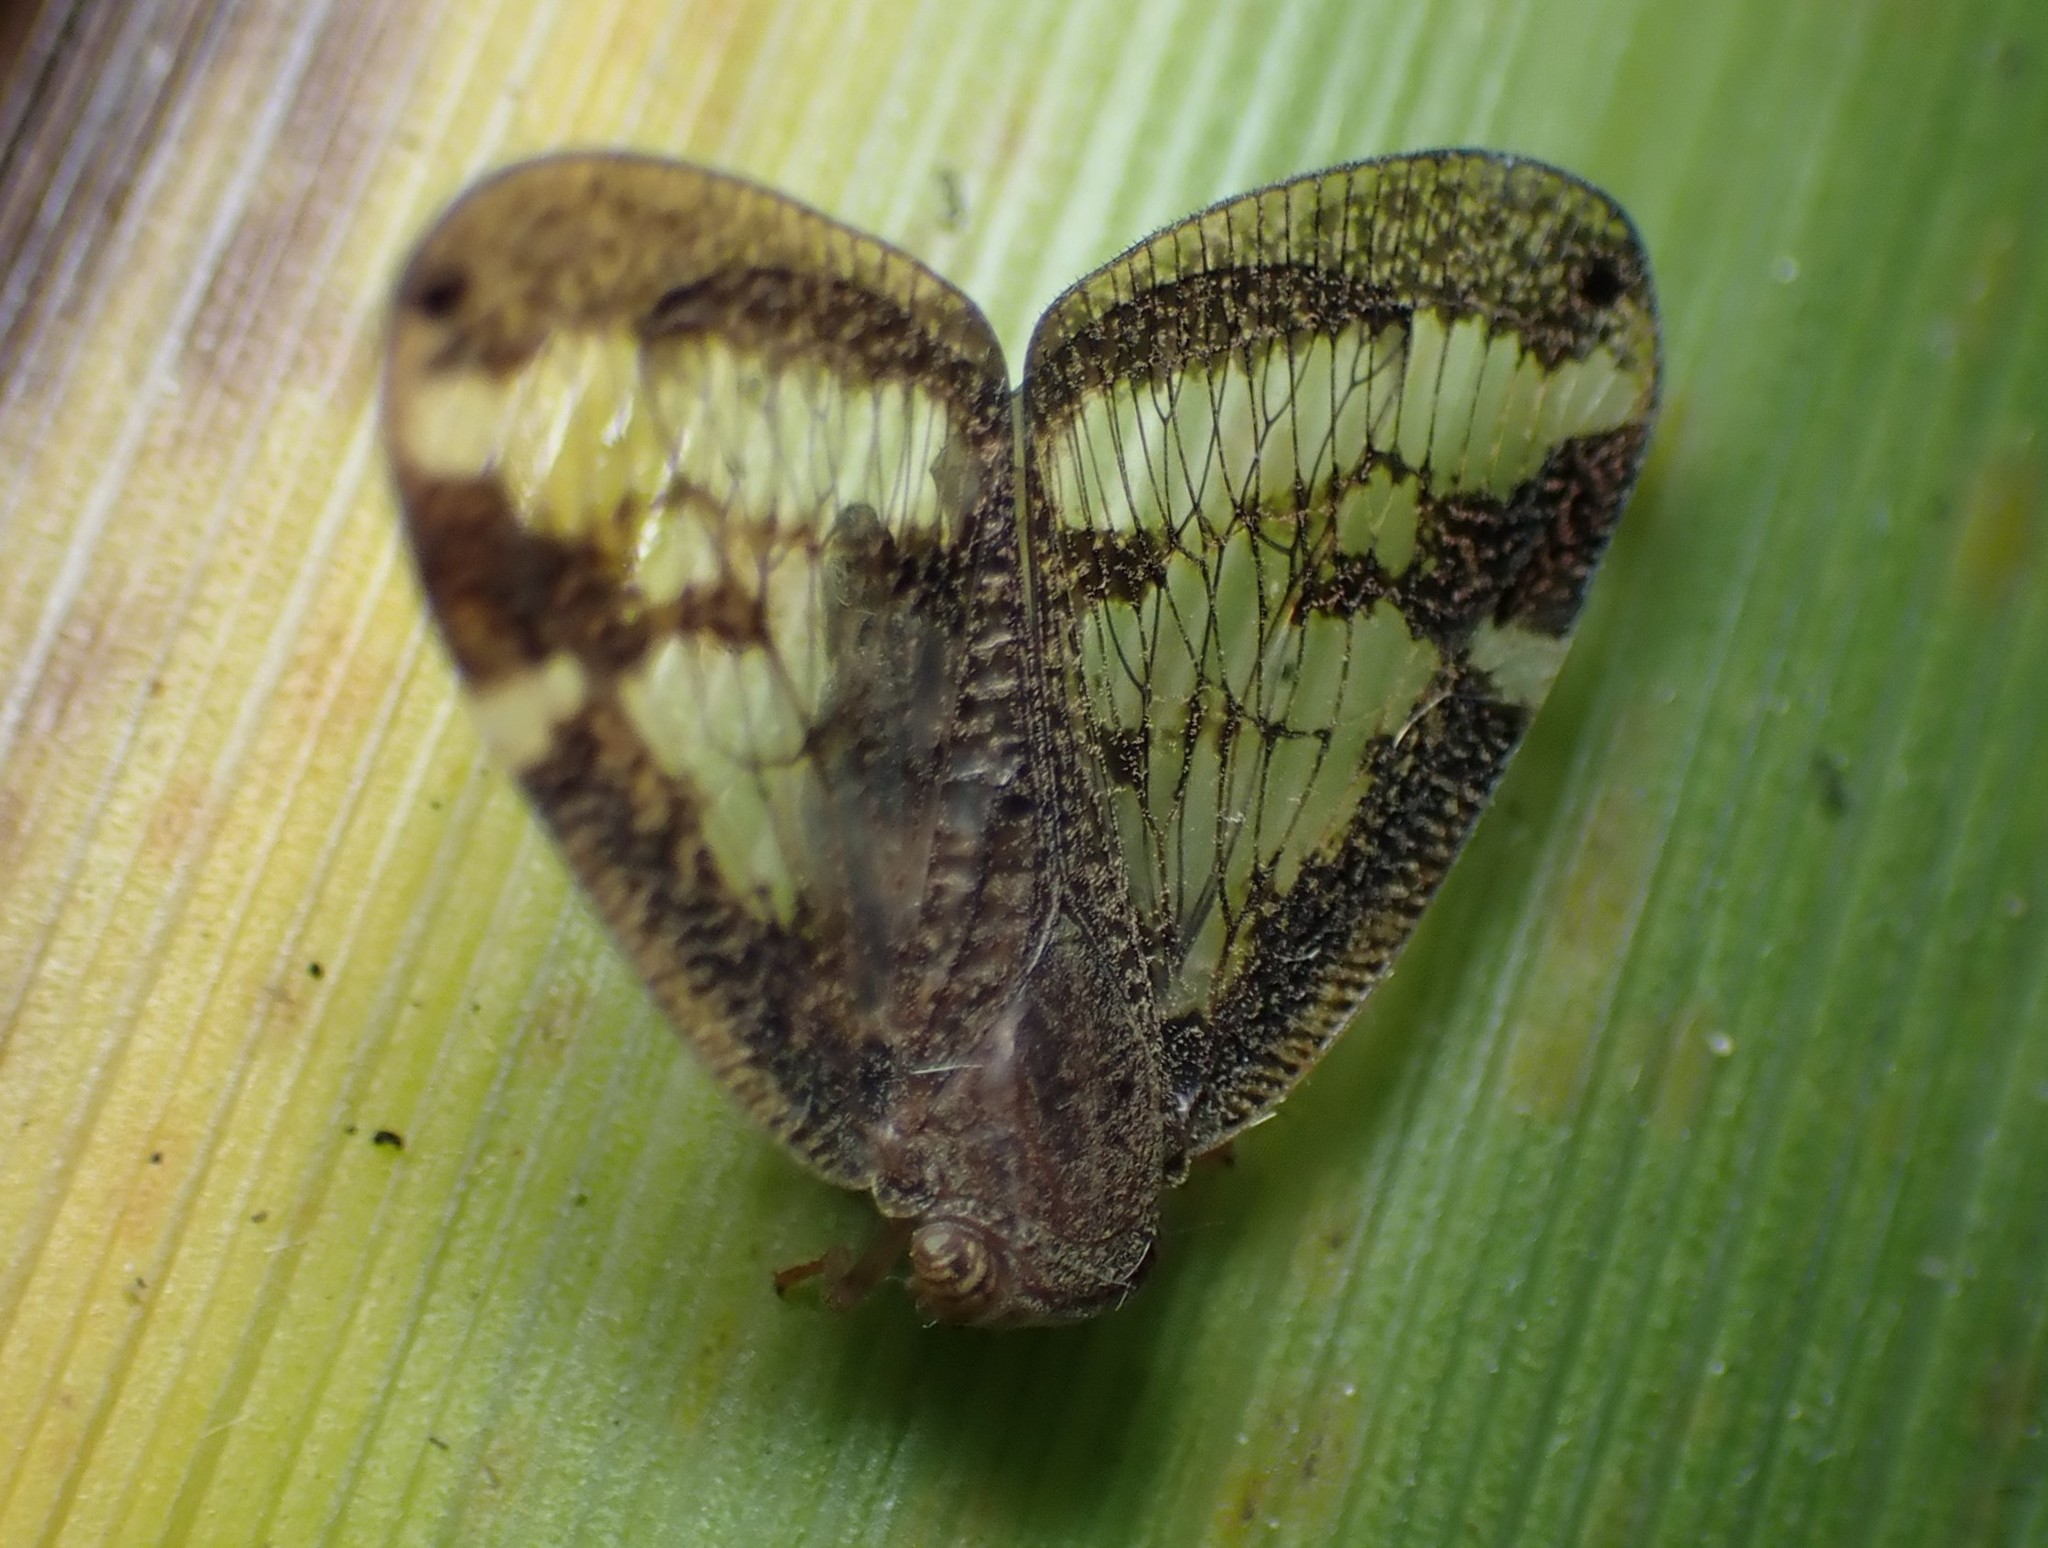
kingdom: Animalia
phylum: Arthropoda
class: Insecta
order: Hemiptera
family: Ricaniidae
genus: Scolypopa
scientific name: Scolypopa australis
